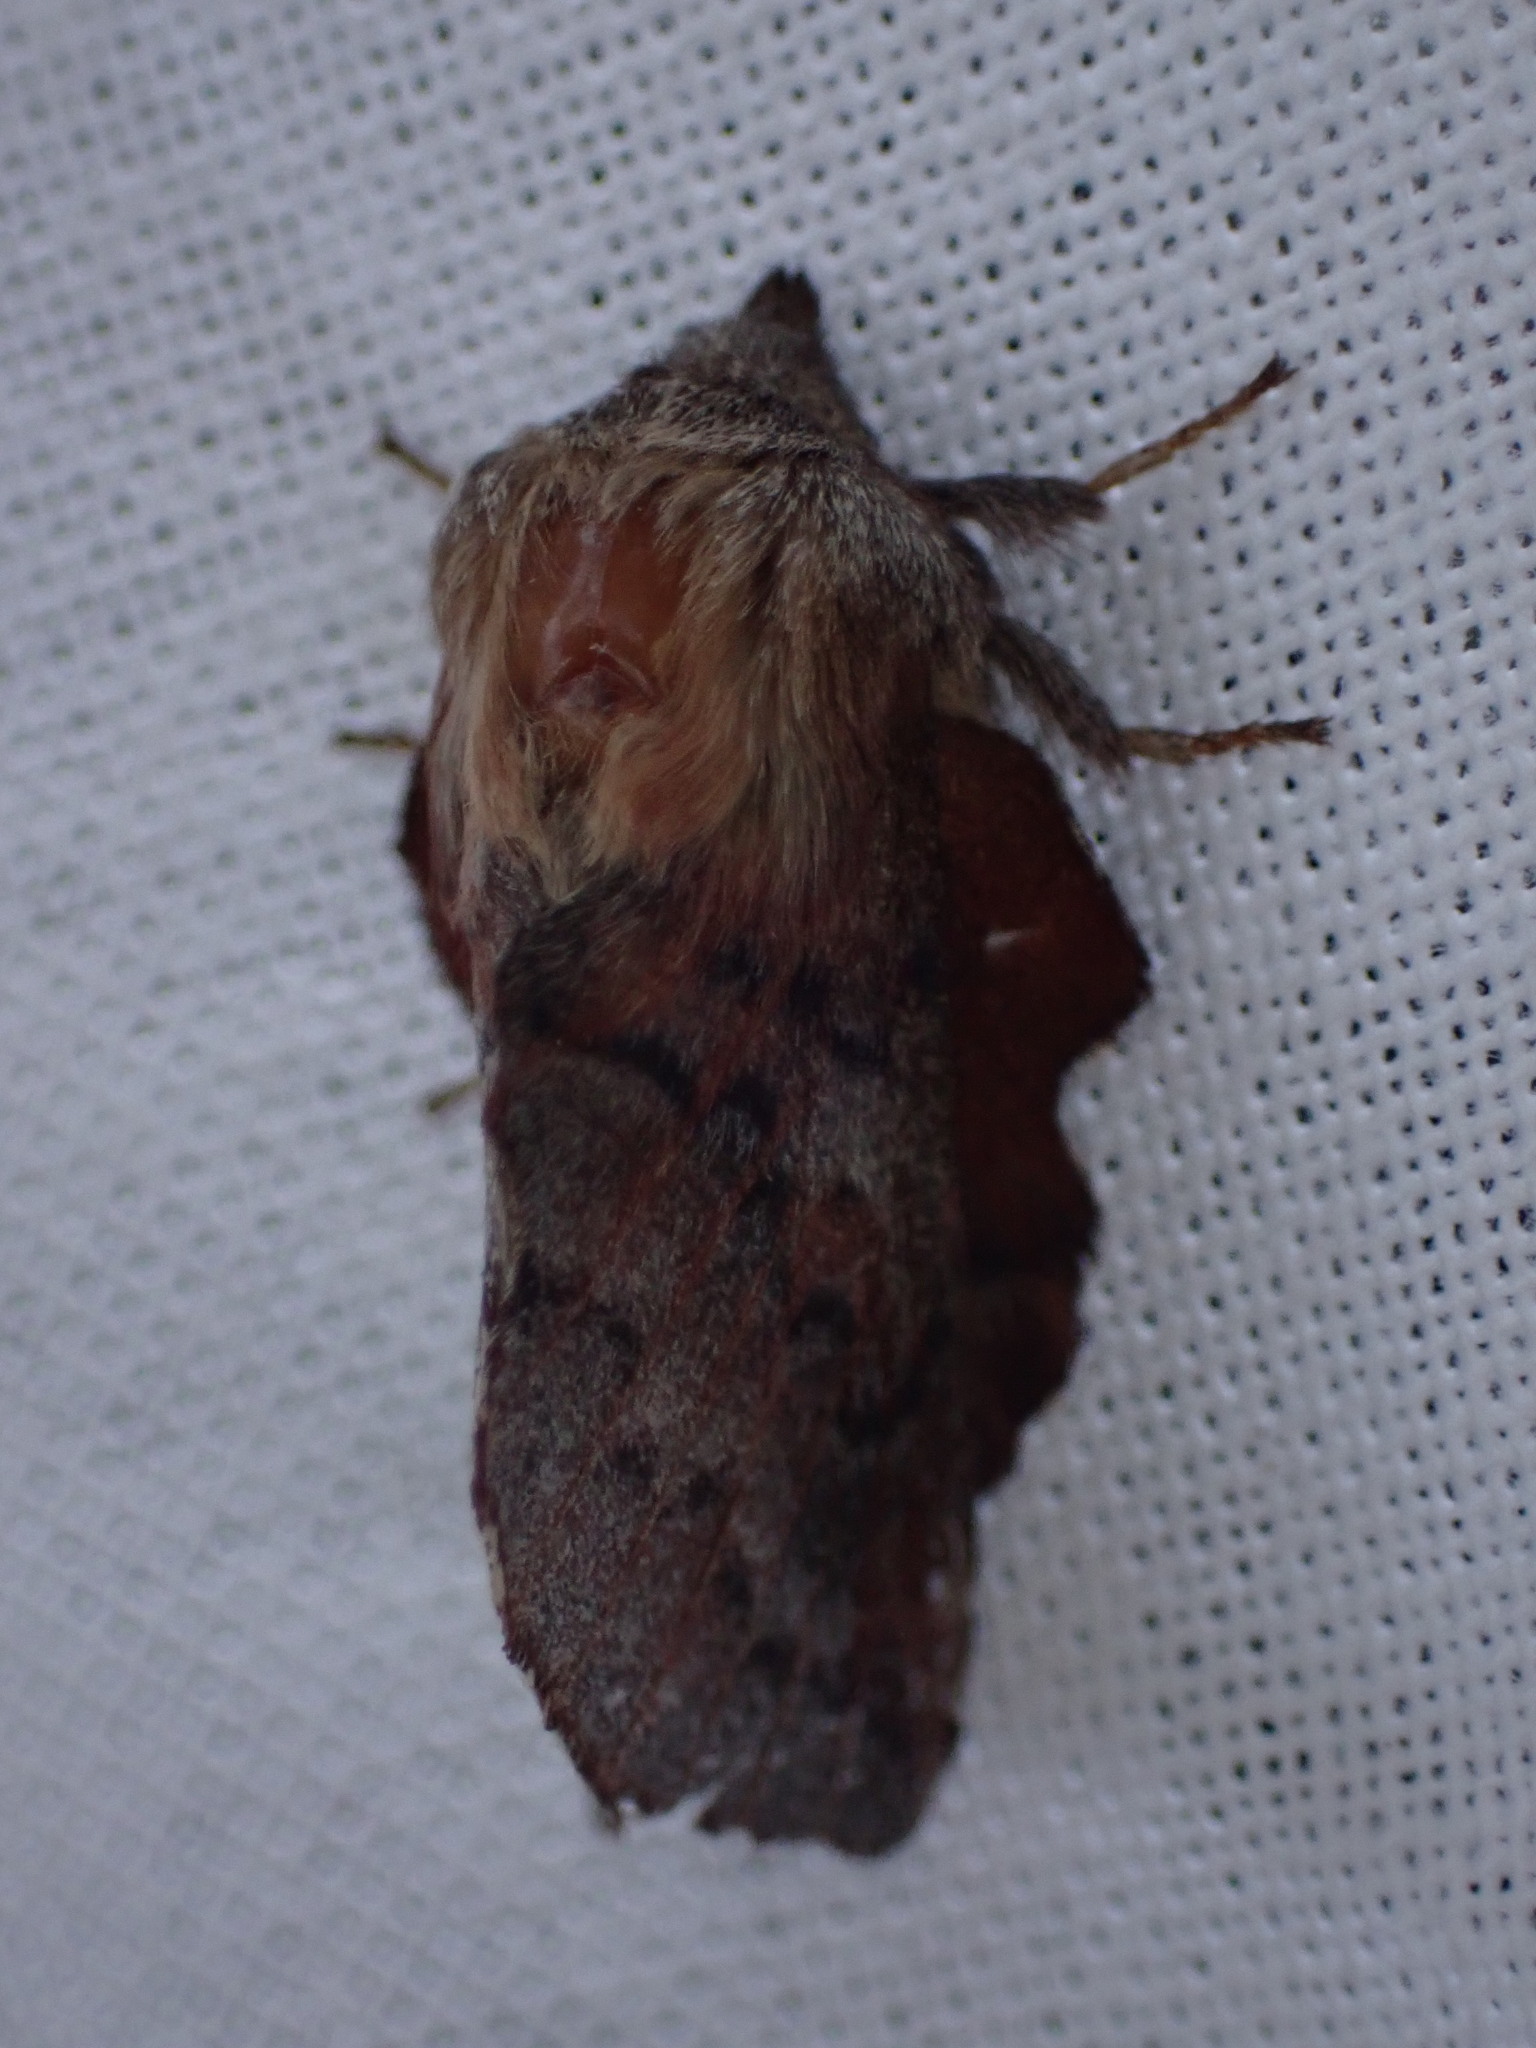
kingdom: Animalia
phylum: Arthropoda
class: Insecta
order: Lepidoptera
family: Lasiocampidae
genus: Phyllodesma
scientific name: Phyllodesma americana
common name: American lappet moth
